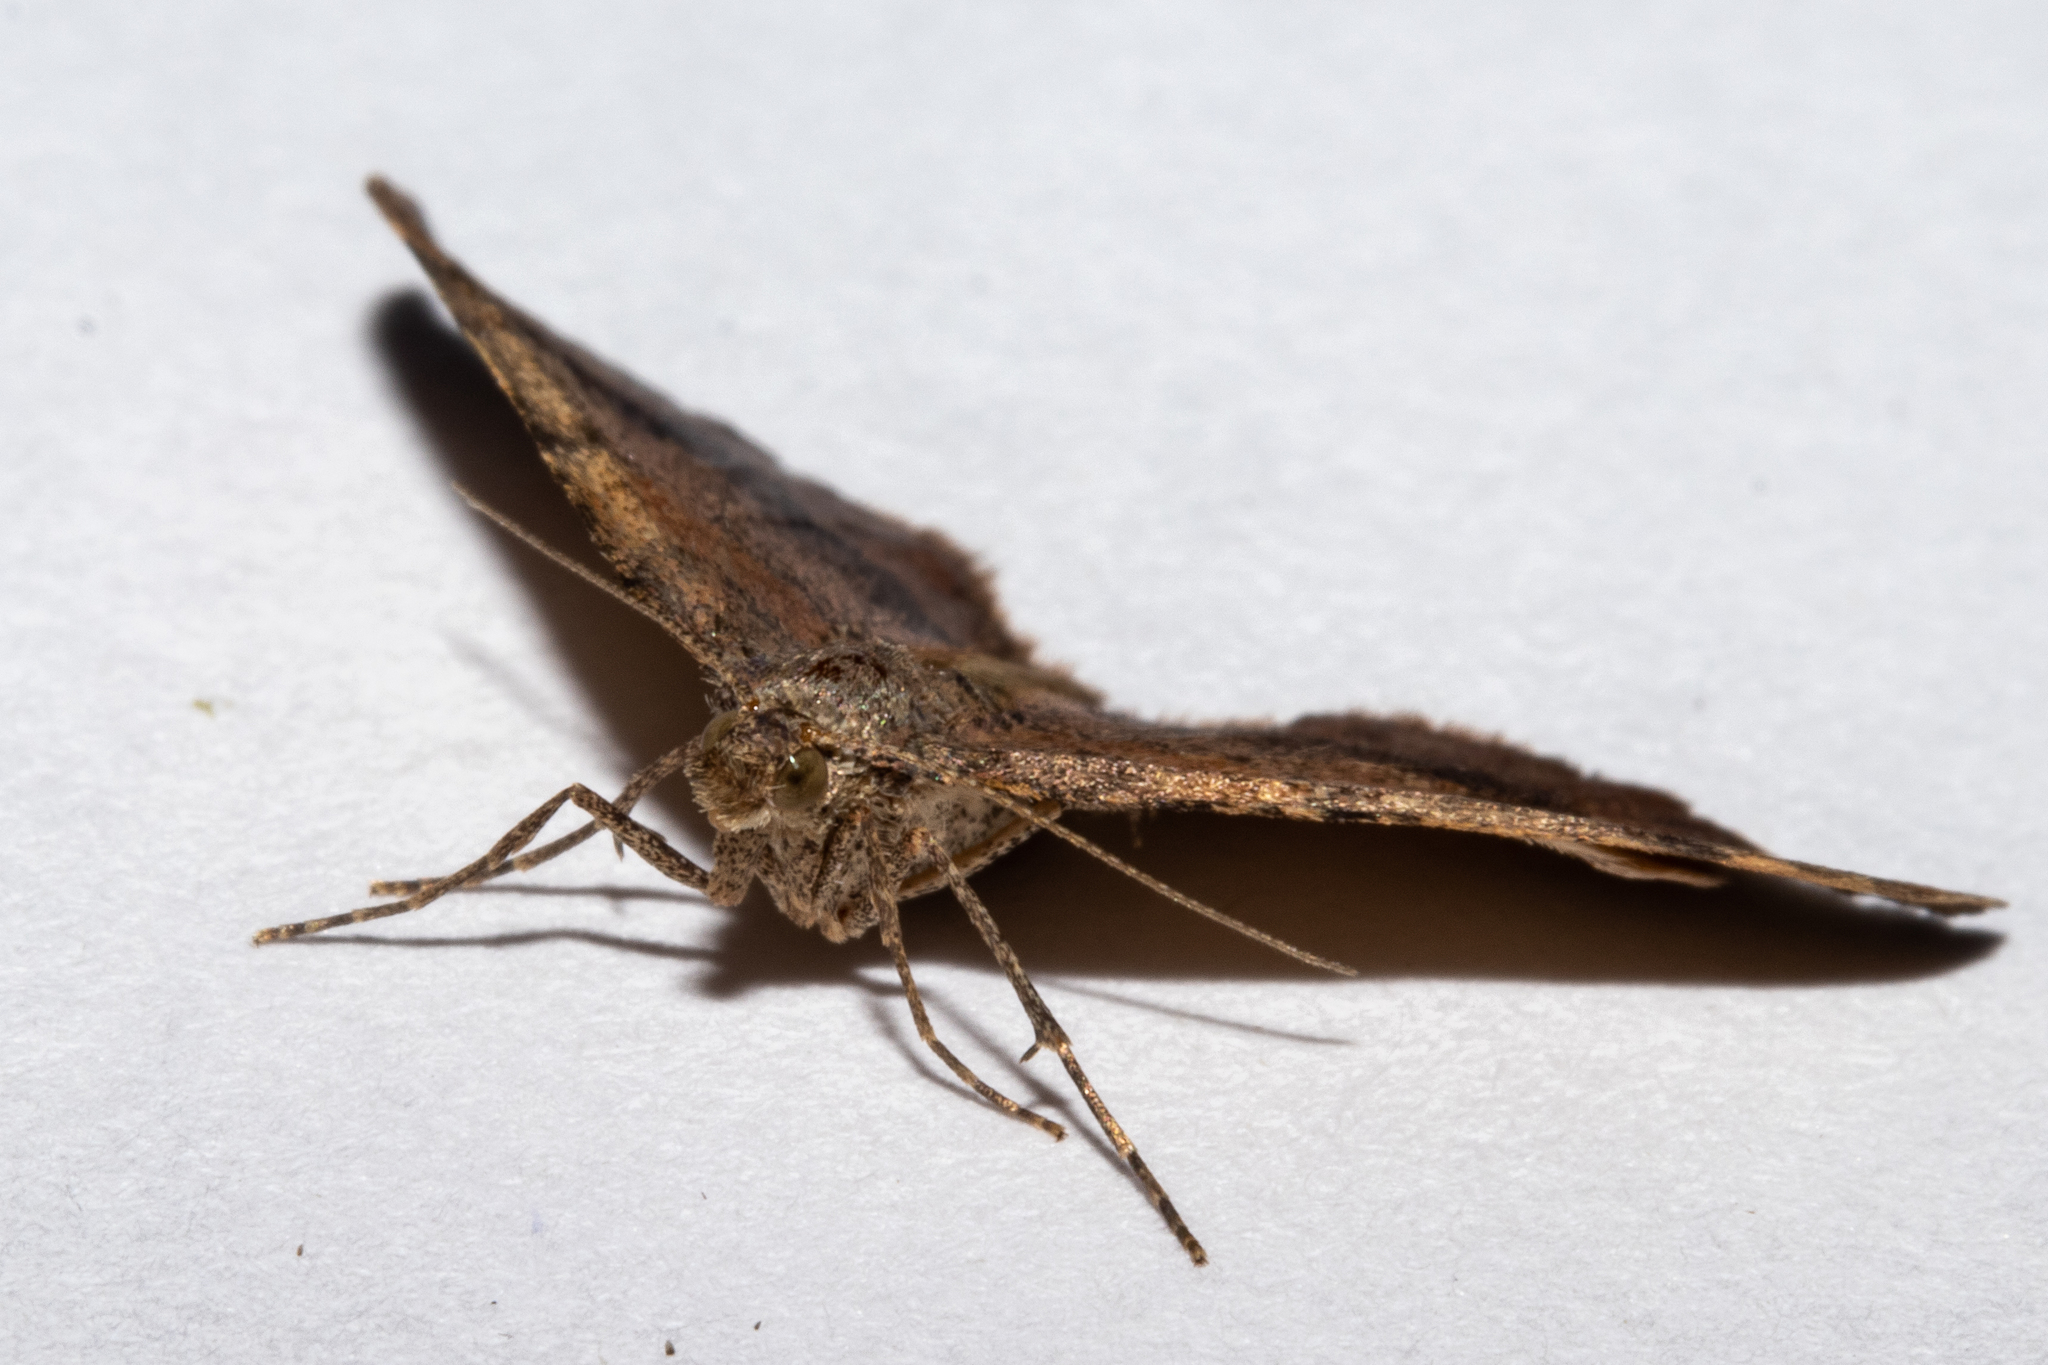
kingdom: Animalia
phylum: Arthropoda
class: Insecta
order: Lepidoptera
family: Geometridae
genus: Homodotis
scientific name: Homodotis megaspilata
